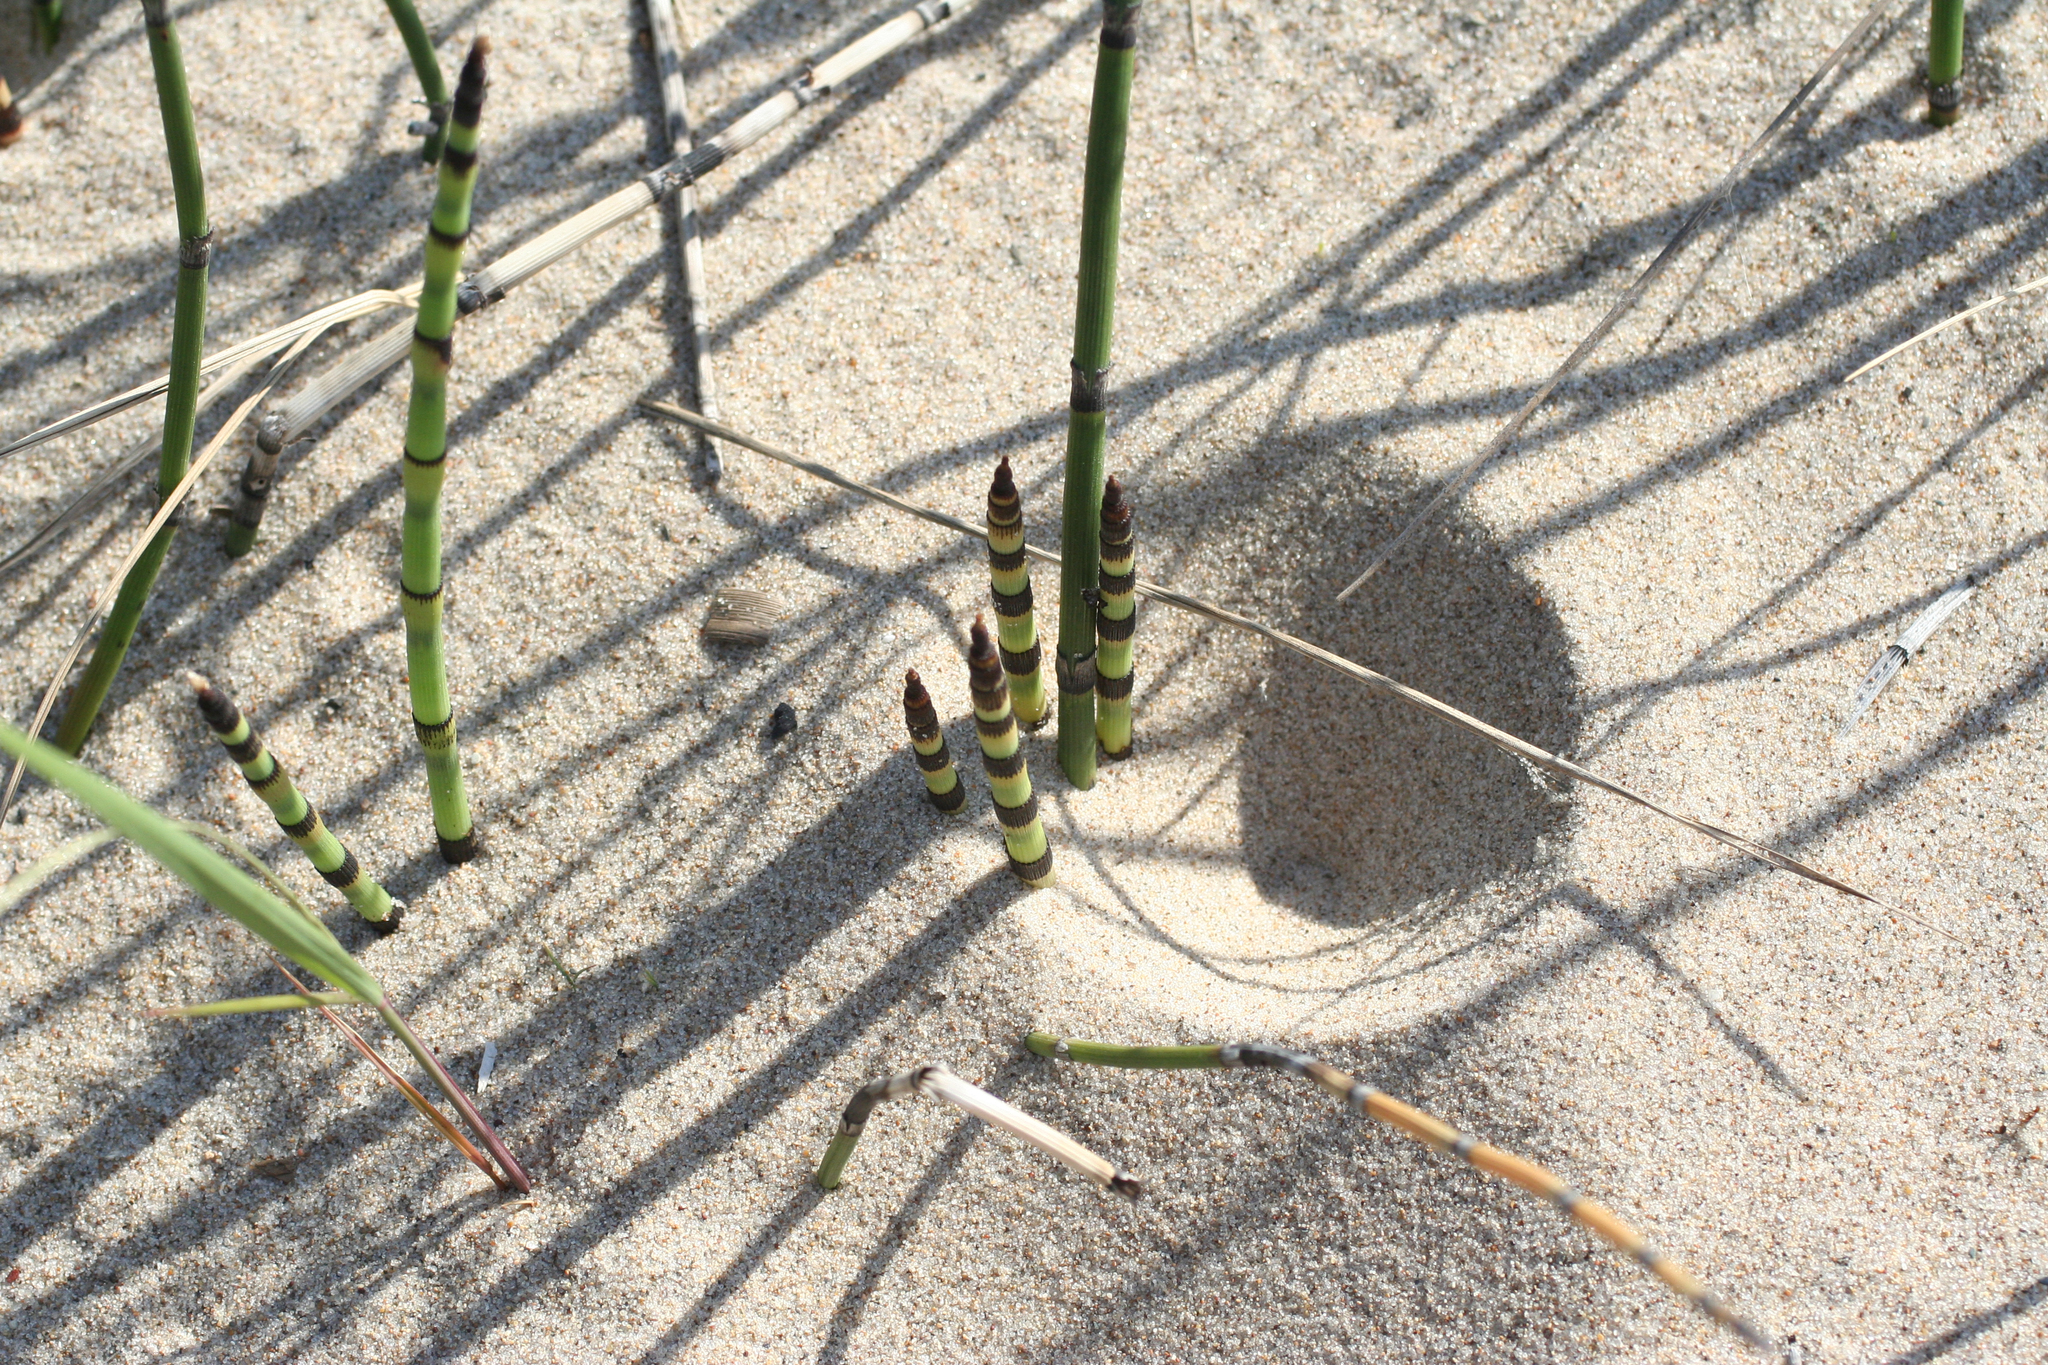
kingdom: Plantae
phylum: Tracheophyta
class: Polypodiopsida
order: Equisetales
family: Equisetaceae
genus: Equisetum
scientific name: Equisetum hyemale
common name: Rough horsetail
